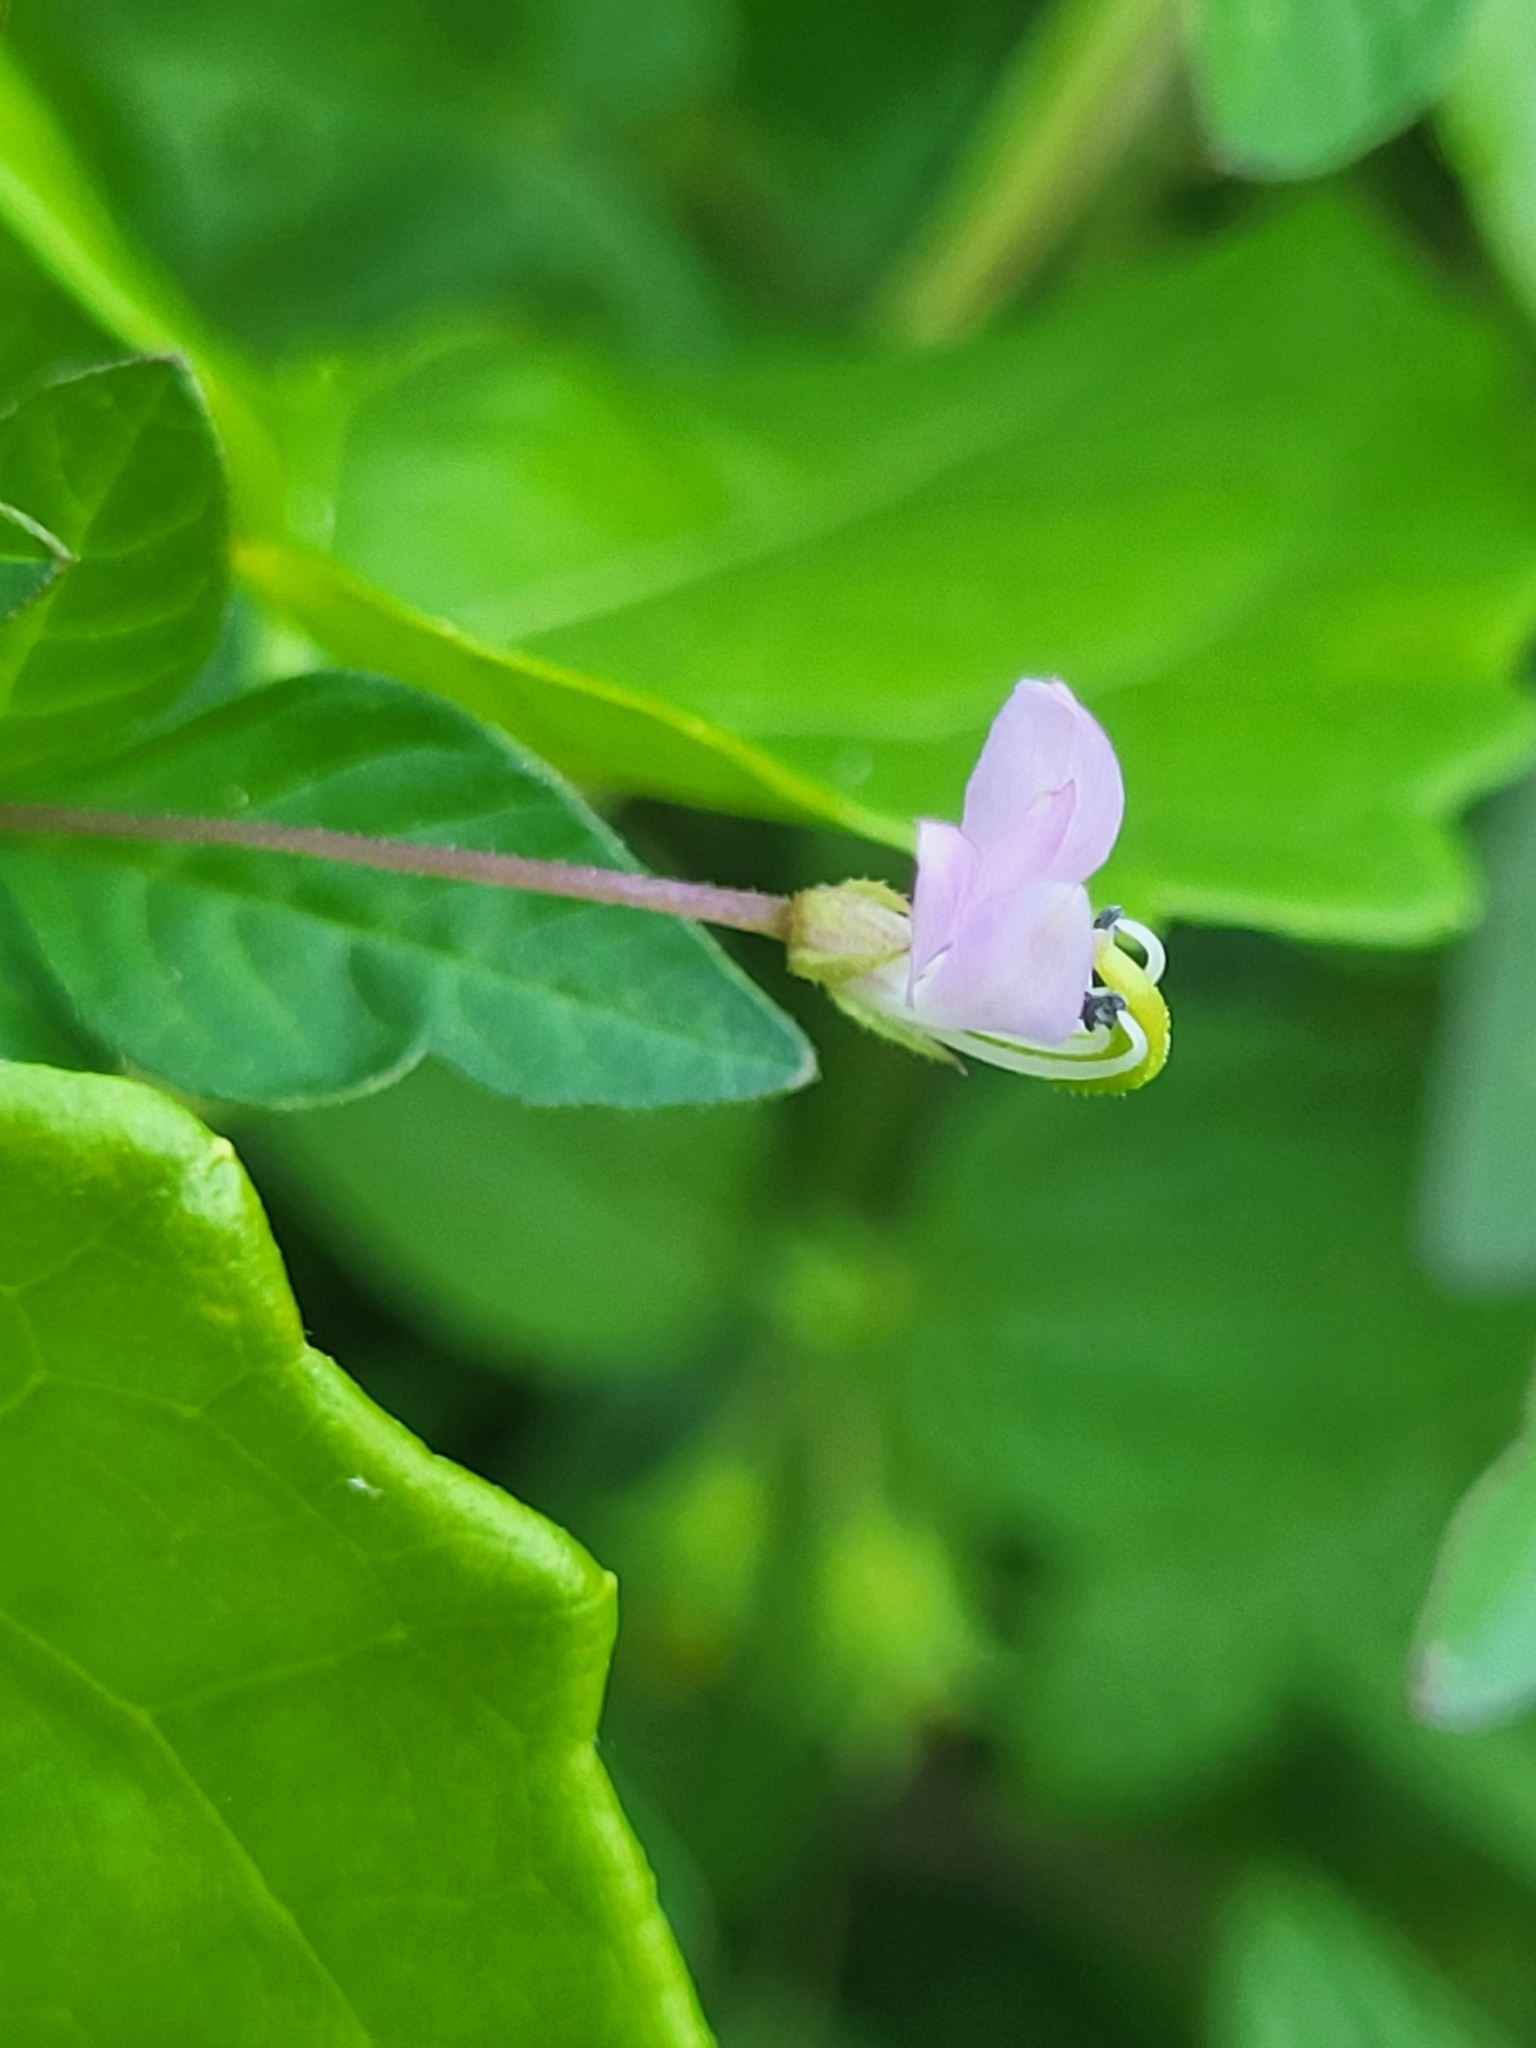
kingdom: Plantae
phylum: Tracheophyta
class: Magnoliopsida
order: Brassicales
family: Cleomaceae
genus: Sieruela
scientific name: Sieruela rutidosperma
